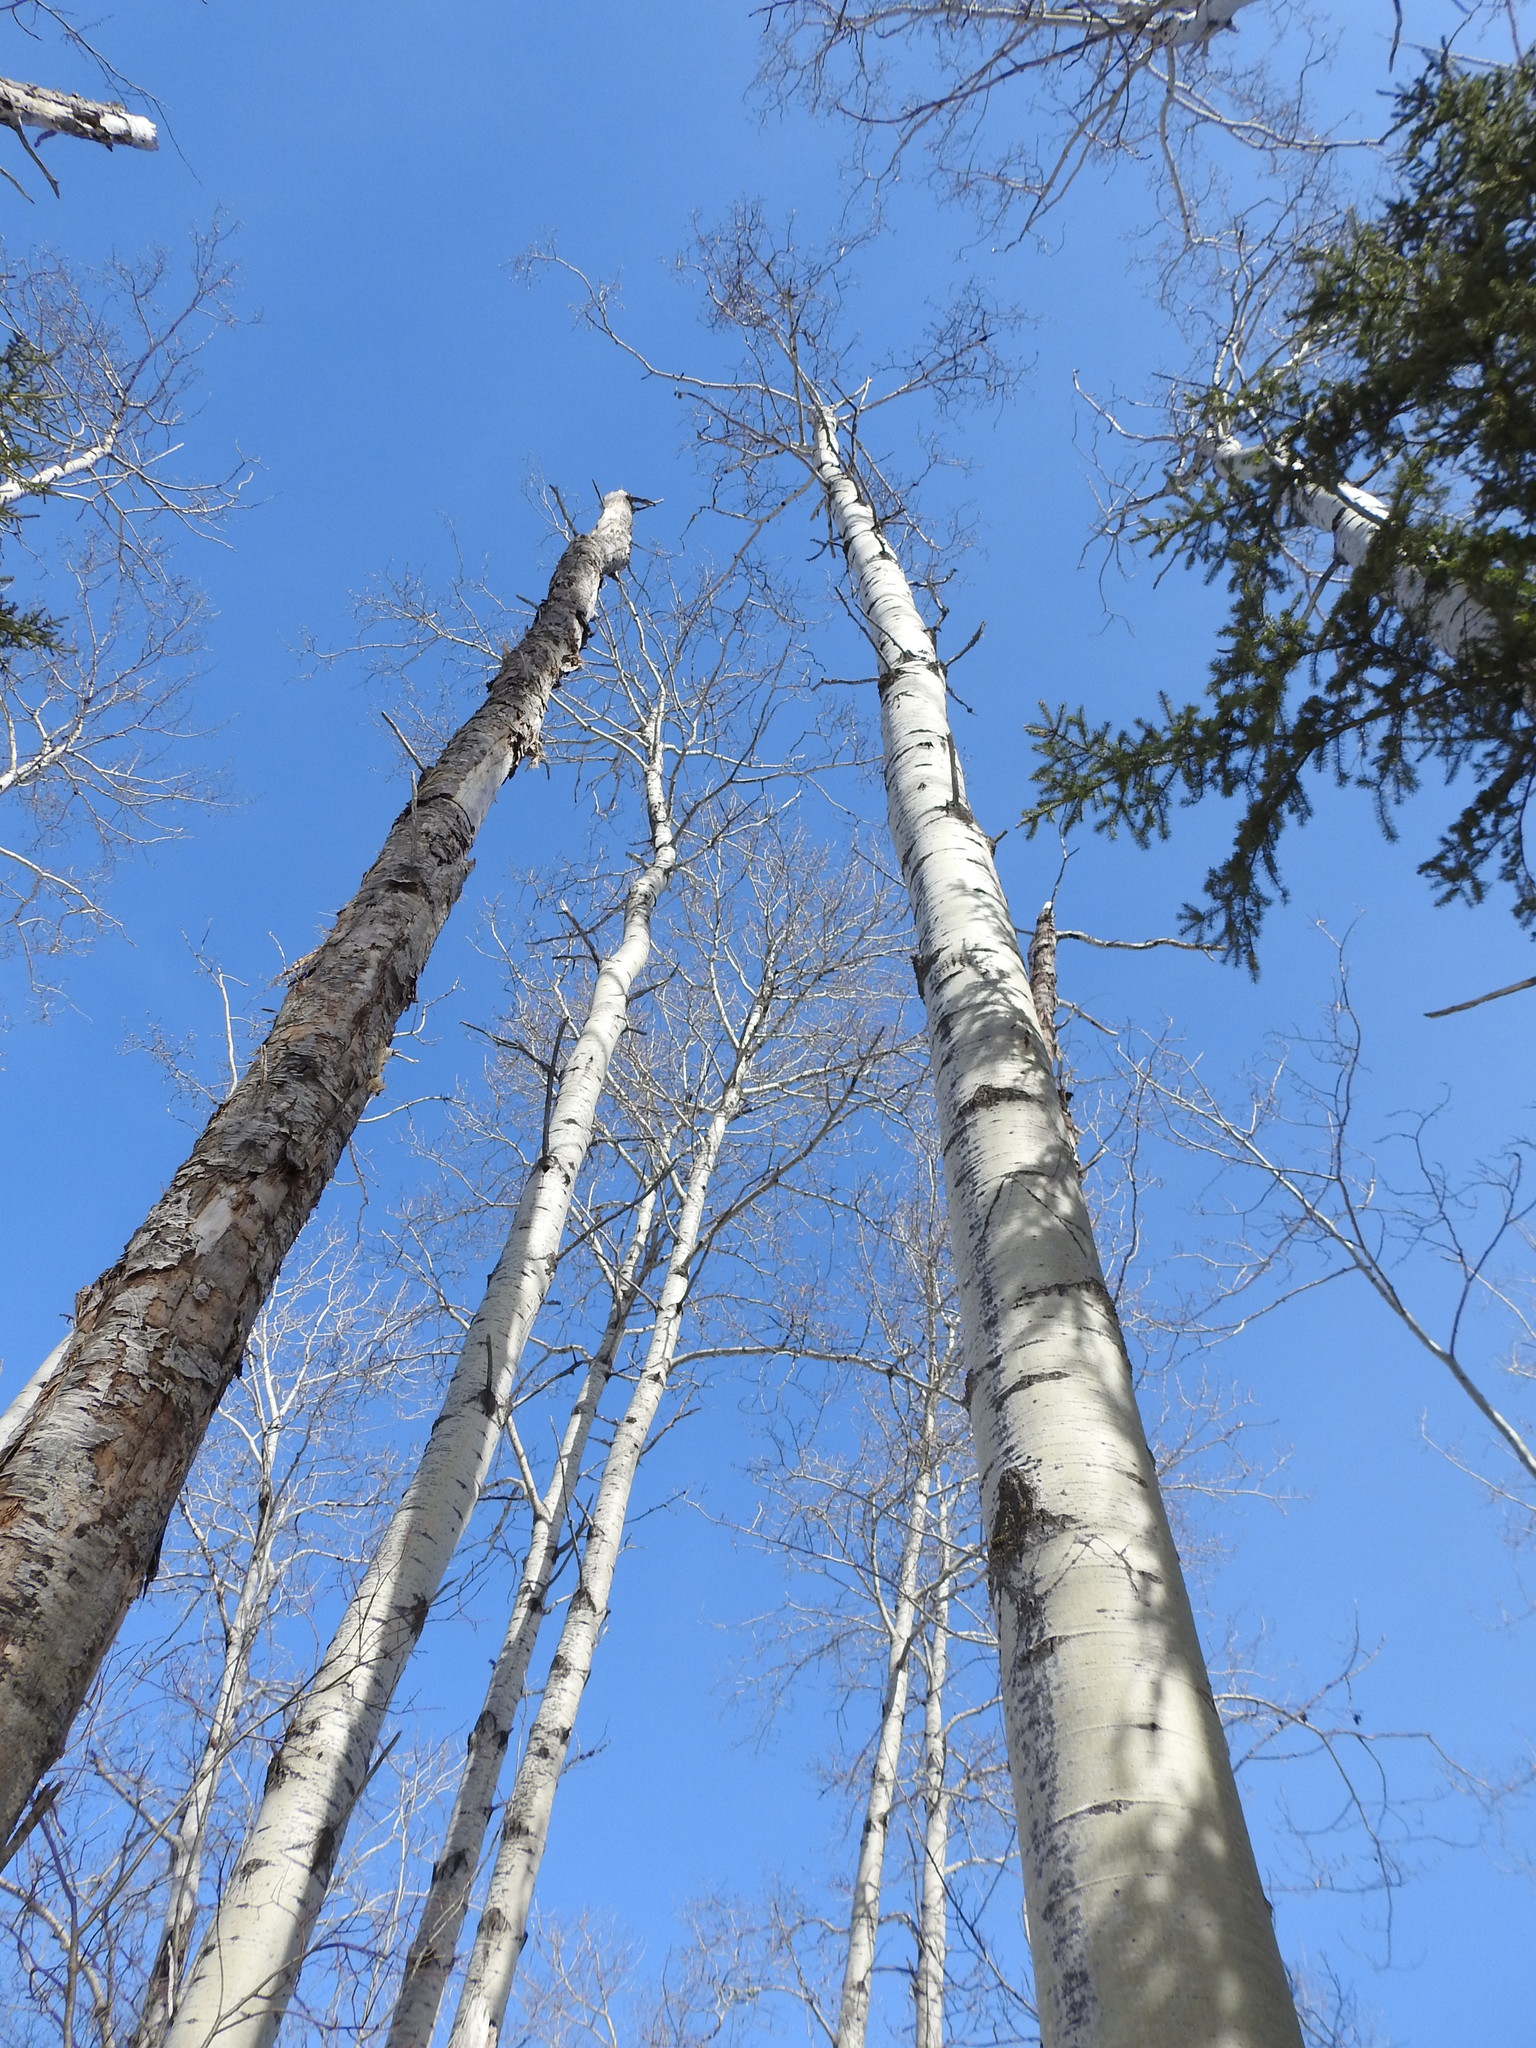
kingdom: Plantae
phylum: Tracheophyta
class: Magnoliopsida
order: Malpighiales
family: Salicaceae
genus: Populus
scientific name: Populus tremuloides
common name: Quaking aspen
